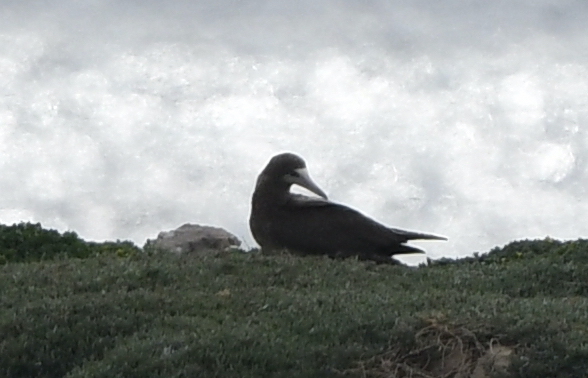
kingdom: Animalia
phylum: Chordata
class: Aves
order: Suliformes
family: Sulidae
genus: Sula
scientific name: Sula leucogaster
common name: Brown booby
